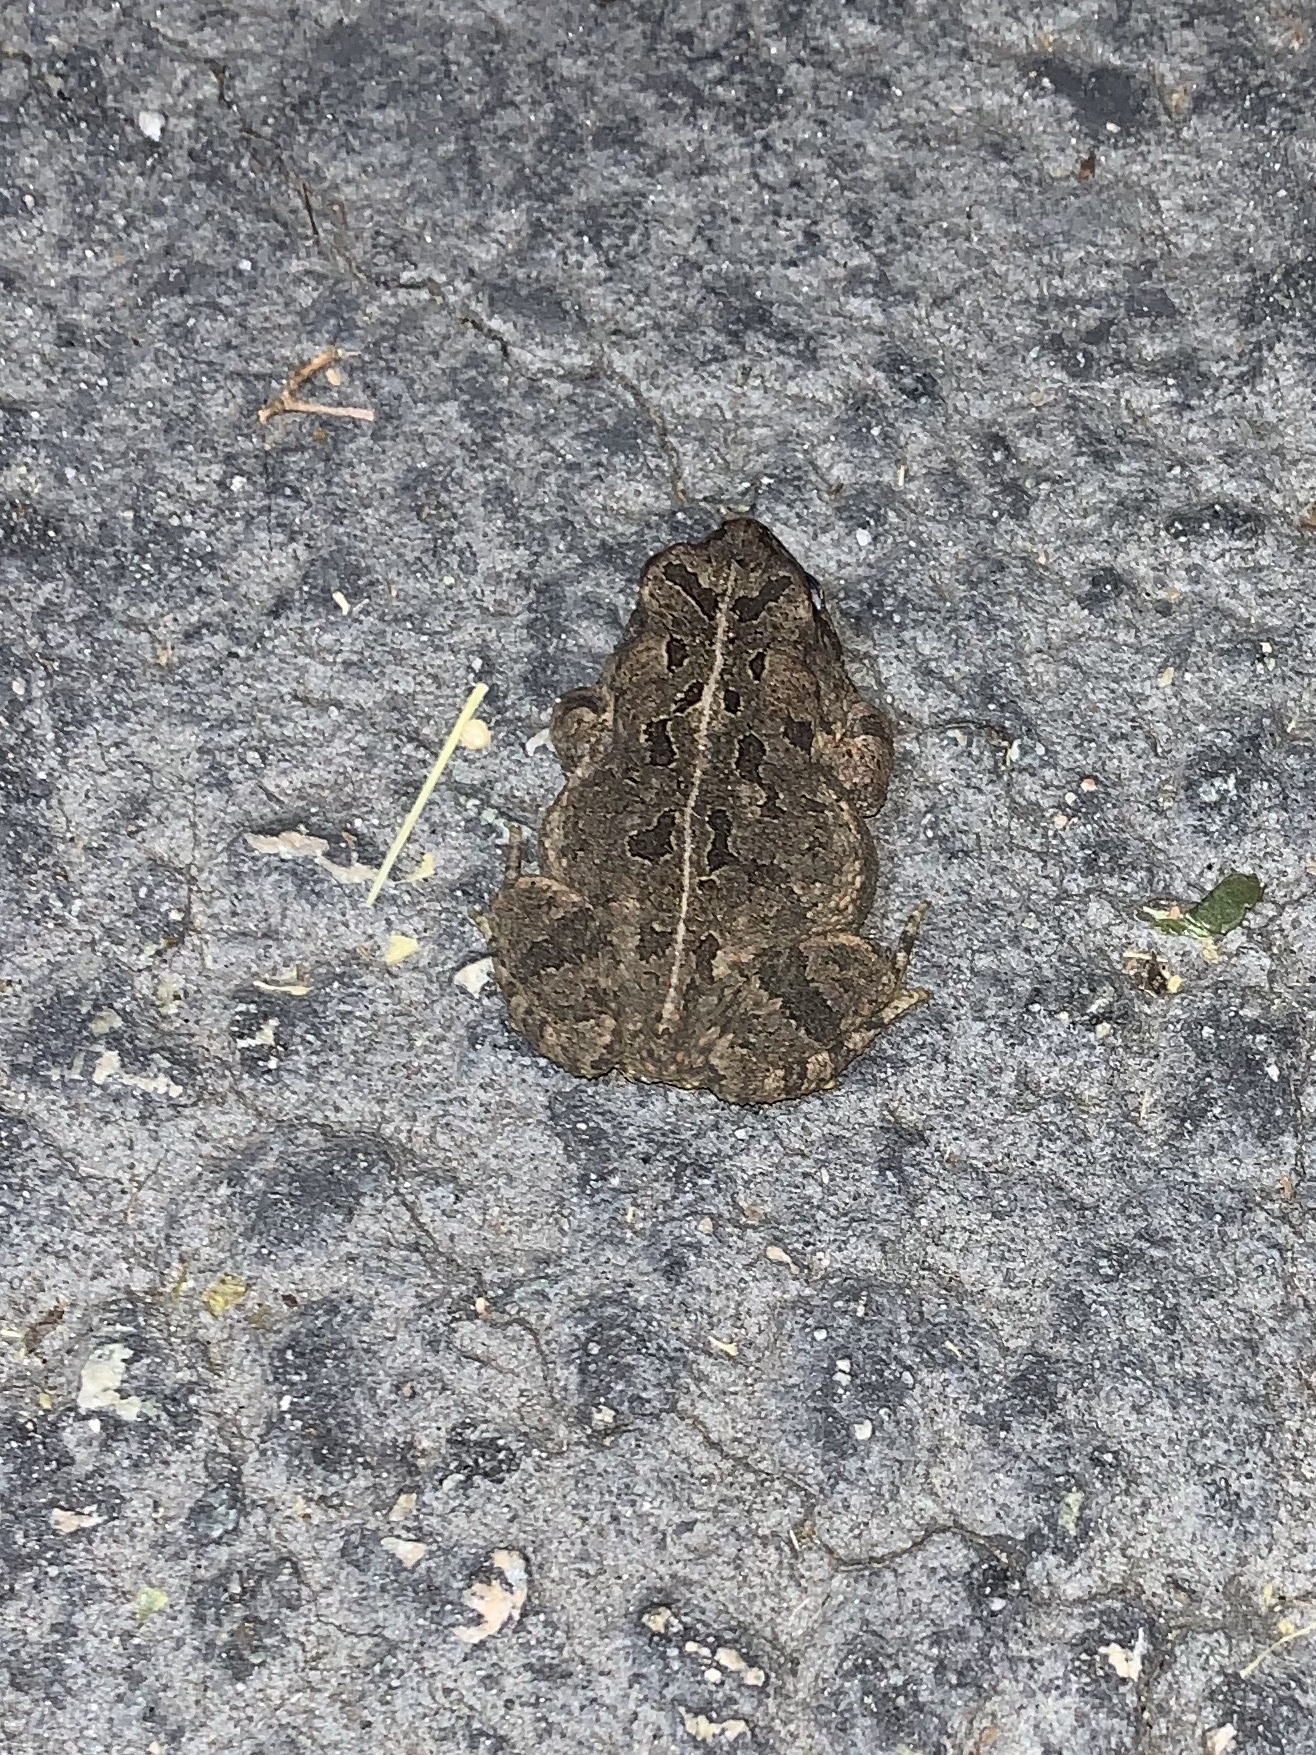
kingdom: Animalia
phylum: Chordata
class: Amphibia
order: Anura
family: Bufonidae
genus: Anaxyrus
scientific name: Anaxyrus fowleri
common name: Fowler's toad
